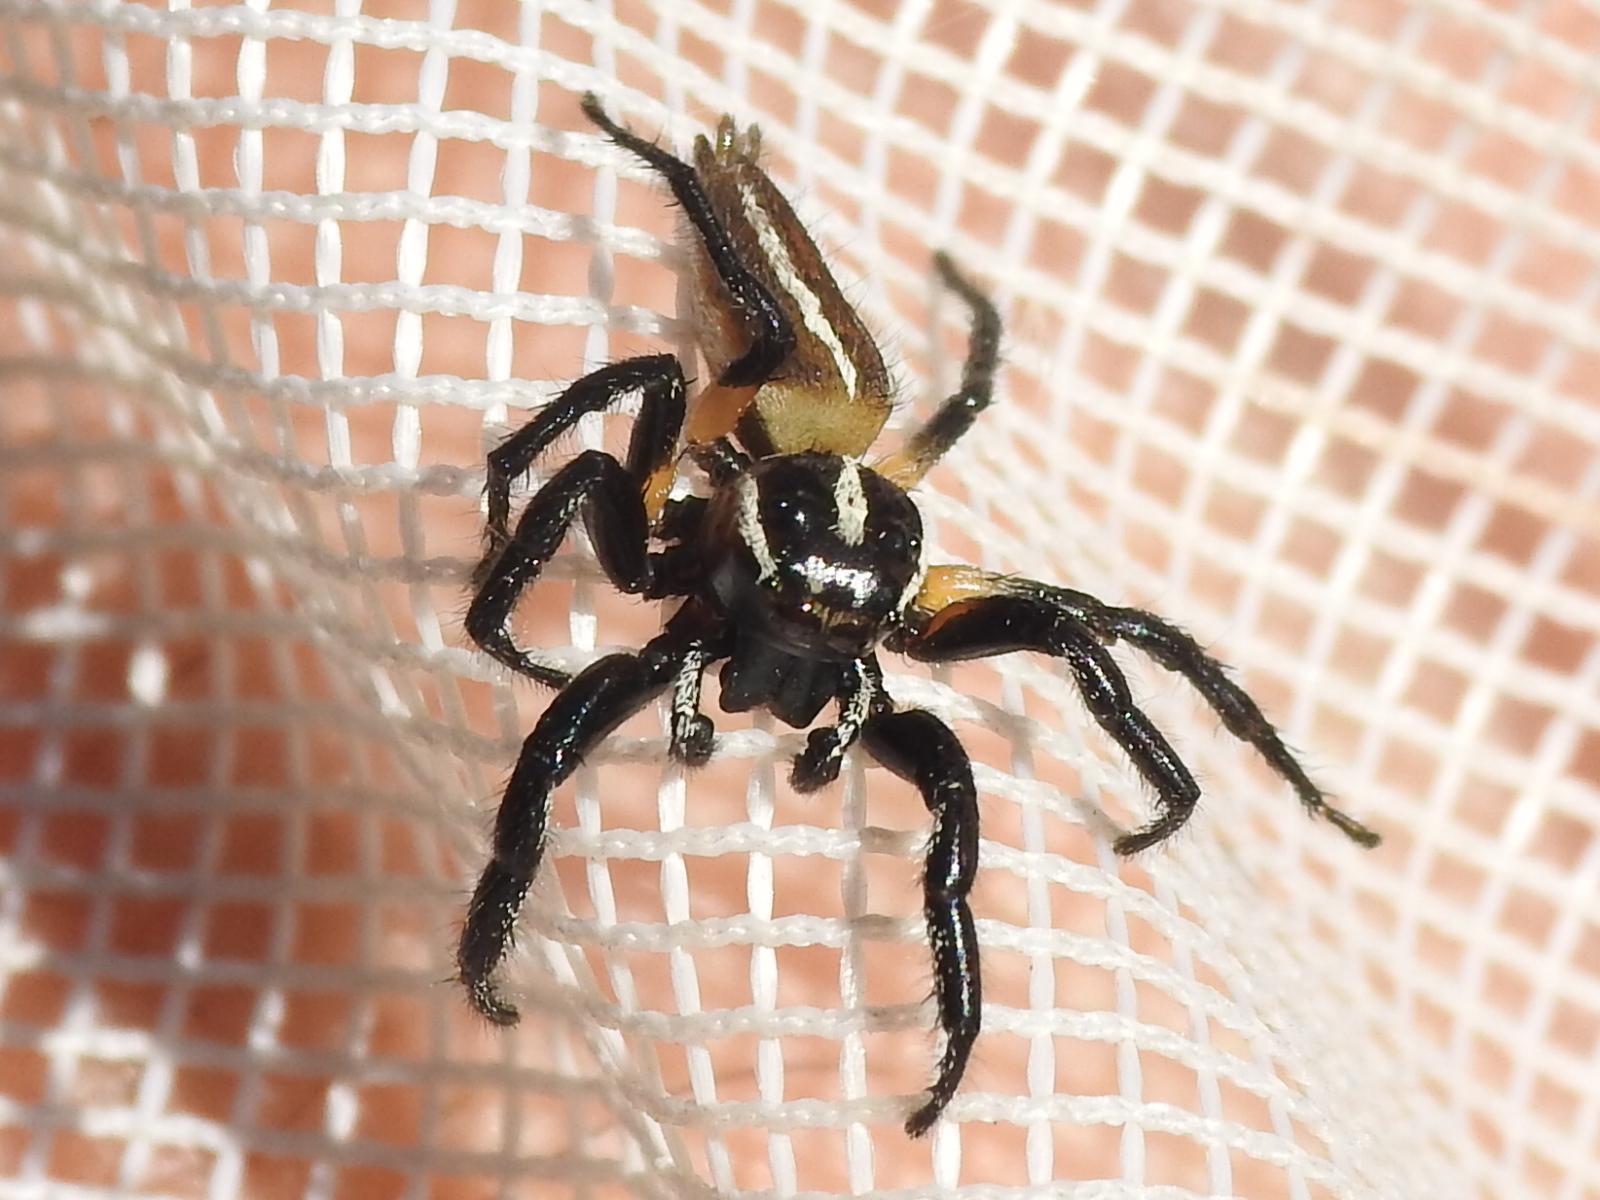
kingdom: Animalia
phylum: Arthropoda
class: Arachnida
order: Araneae
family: Salticidae
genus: Colonus
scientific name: Colonus puerperus
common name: Jumping spiders
